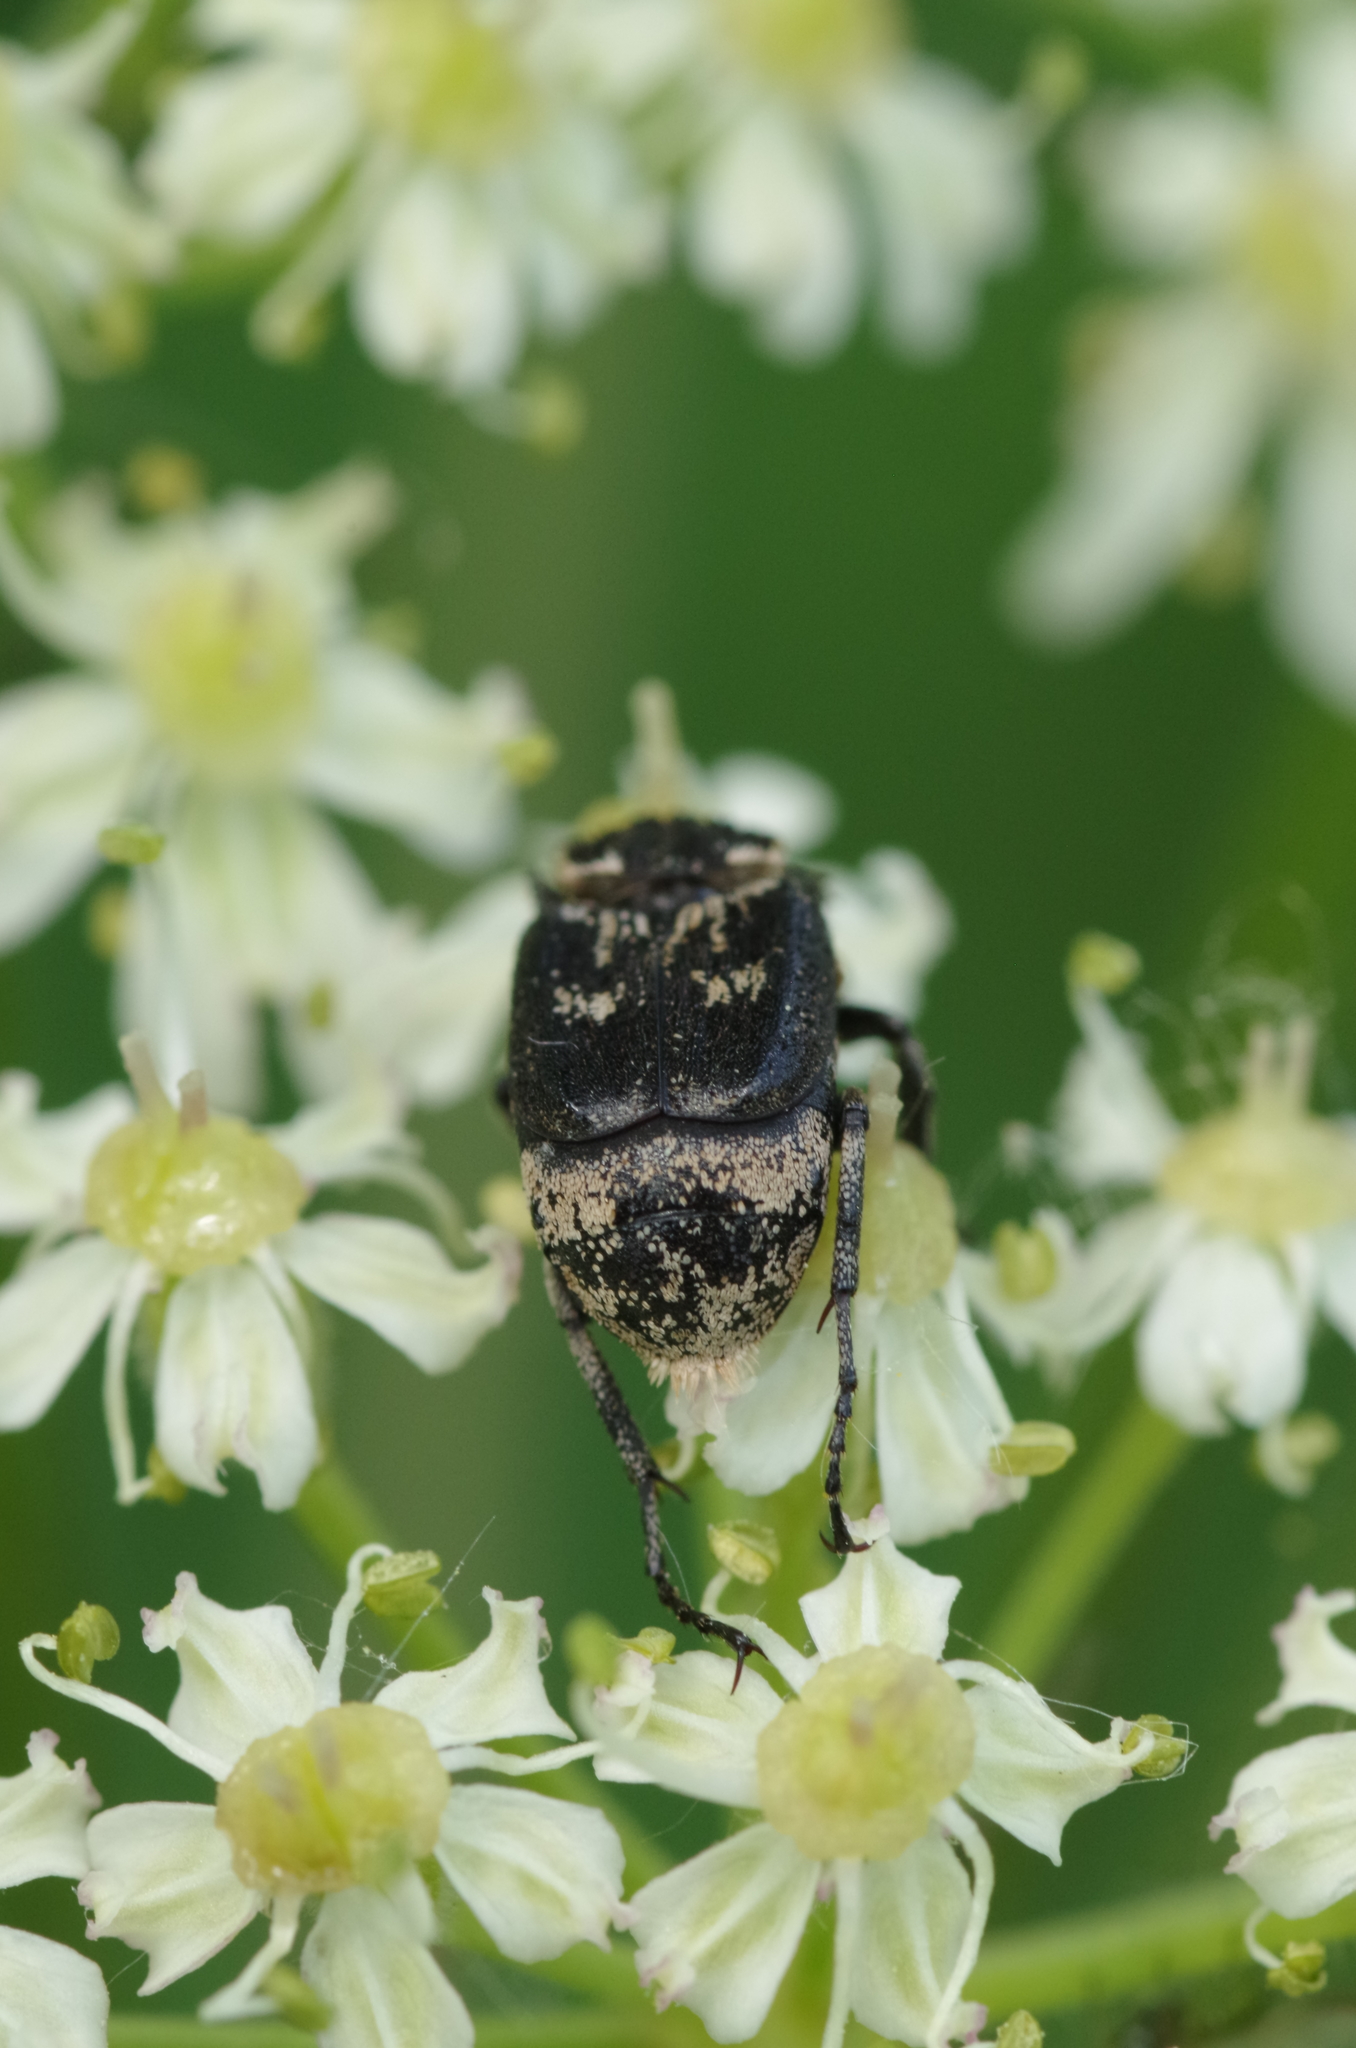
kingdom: Animalia
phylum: Arthropoda
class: Insecta
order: Coleoptera
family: Scarabaeidae
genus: Valgus
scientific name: Valgus hemipterus
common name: Bug flower chafer
